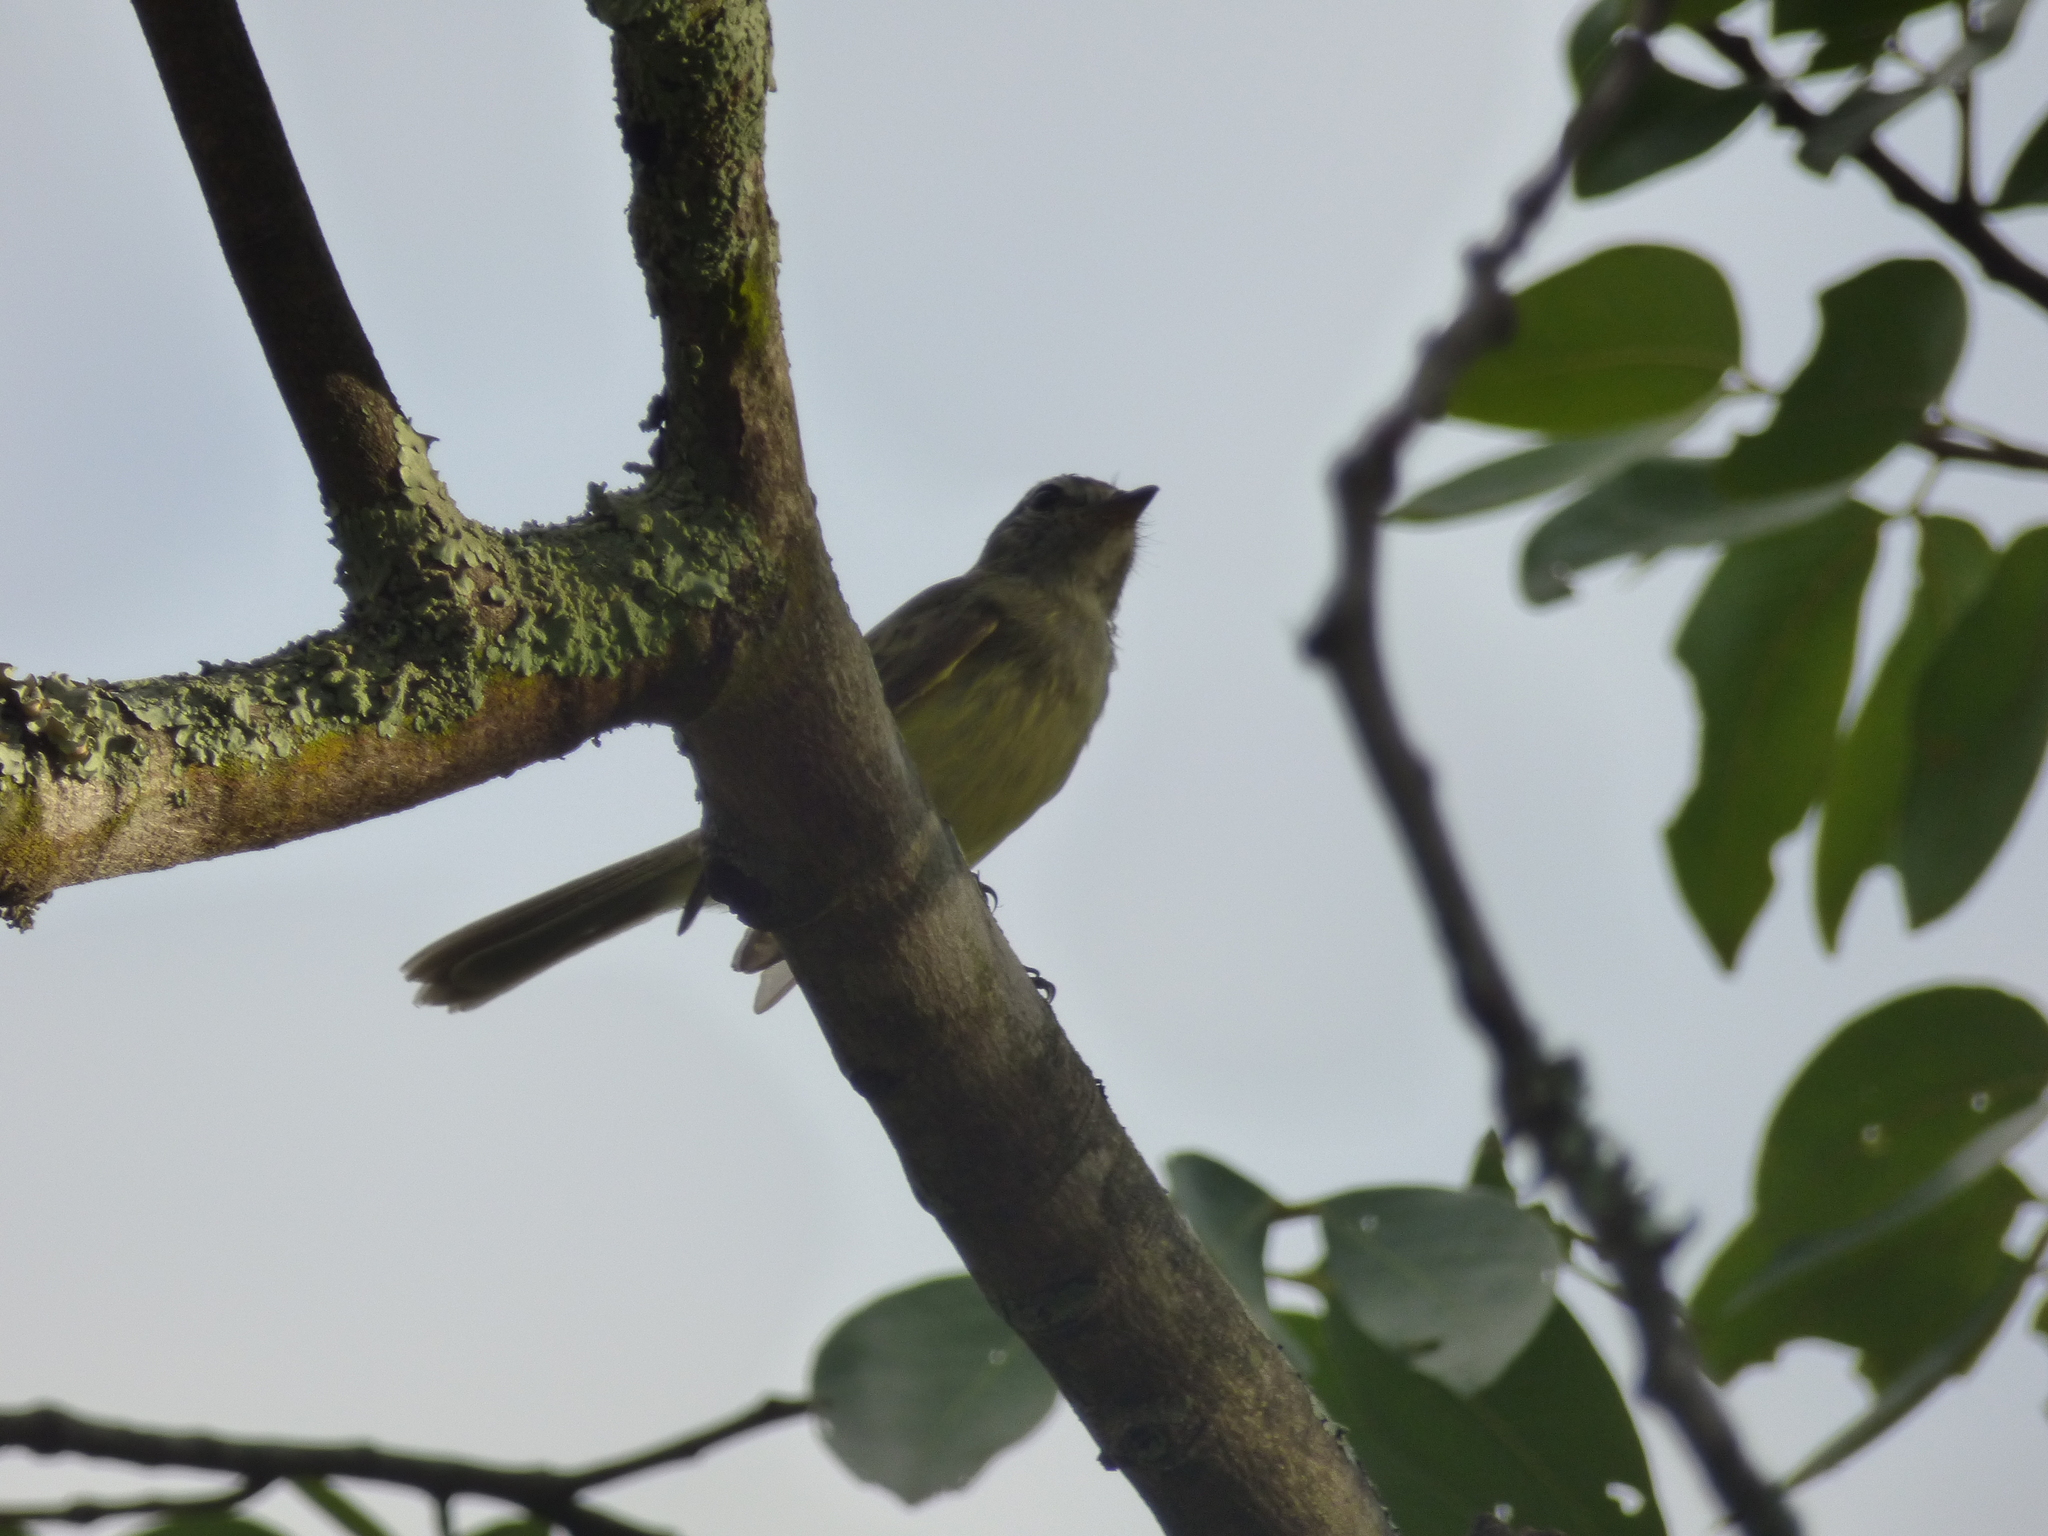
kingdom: Animalia
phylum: Chordata
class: Aves
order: Passeriformes
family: Tyrannidae
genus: Myiopagis
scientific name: Myiopagis viridicata
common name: Greenish elaenia
